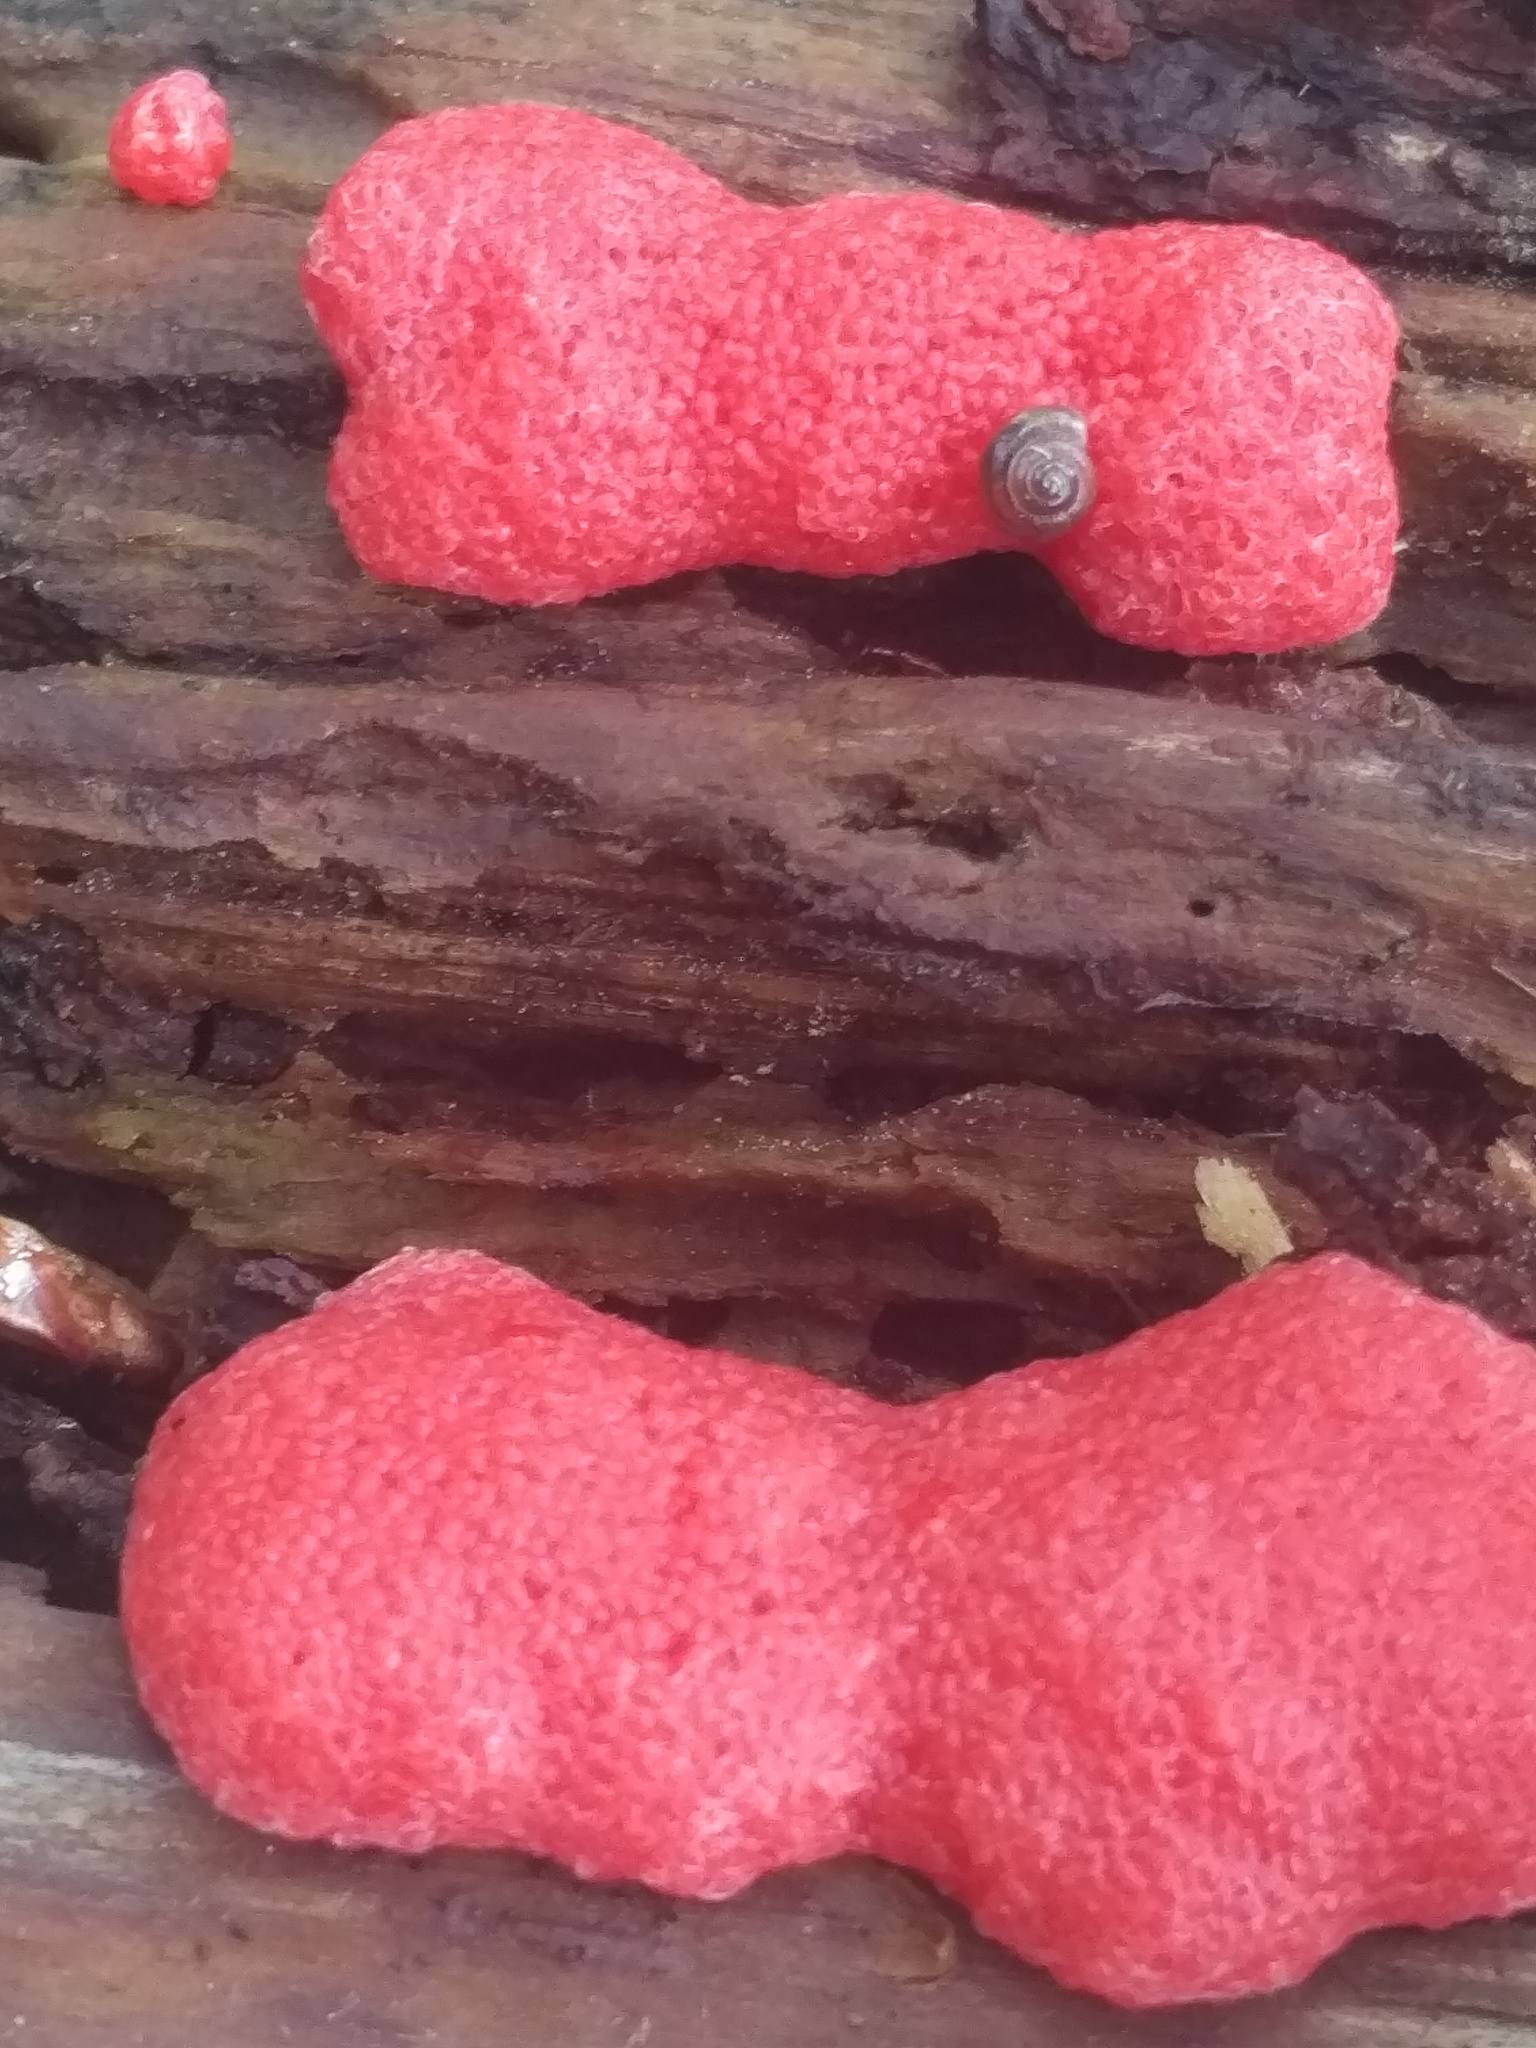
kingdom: Protozoa
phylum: Mycetozoa
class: Myxomycetes
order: Cribrariales
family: Tubiferaceae
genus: Tubifera
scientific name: Tubifera ferruginosa
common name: Red raspberry slime mold
